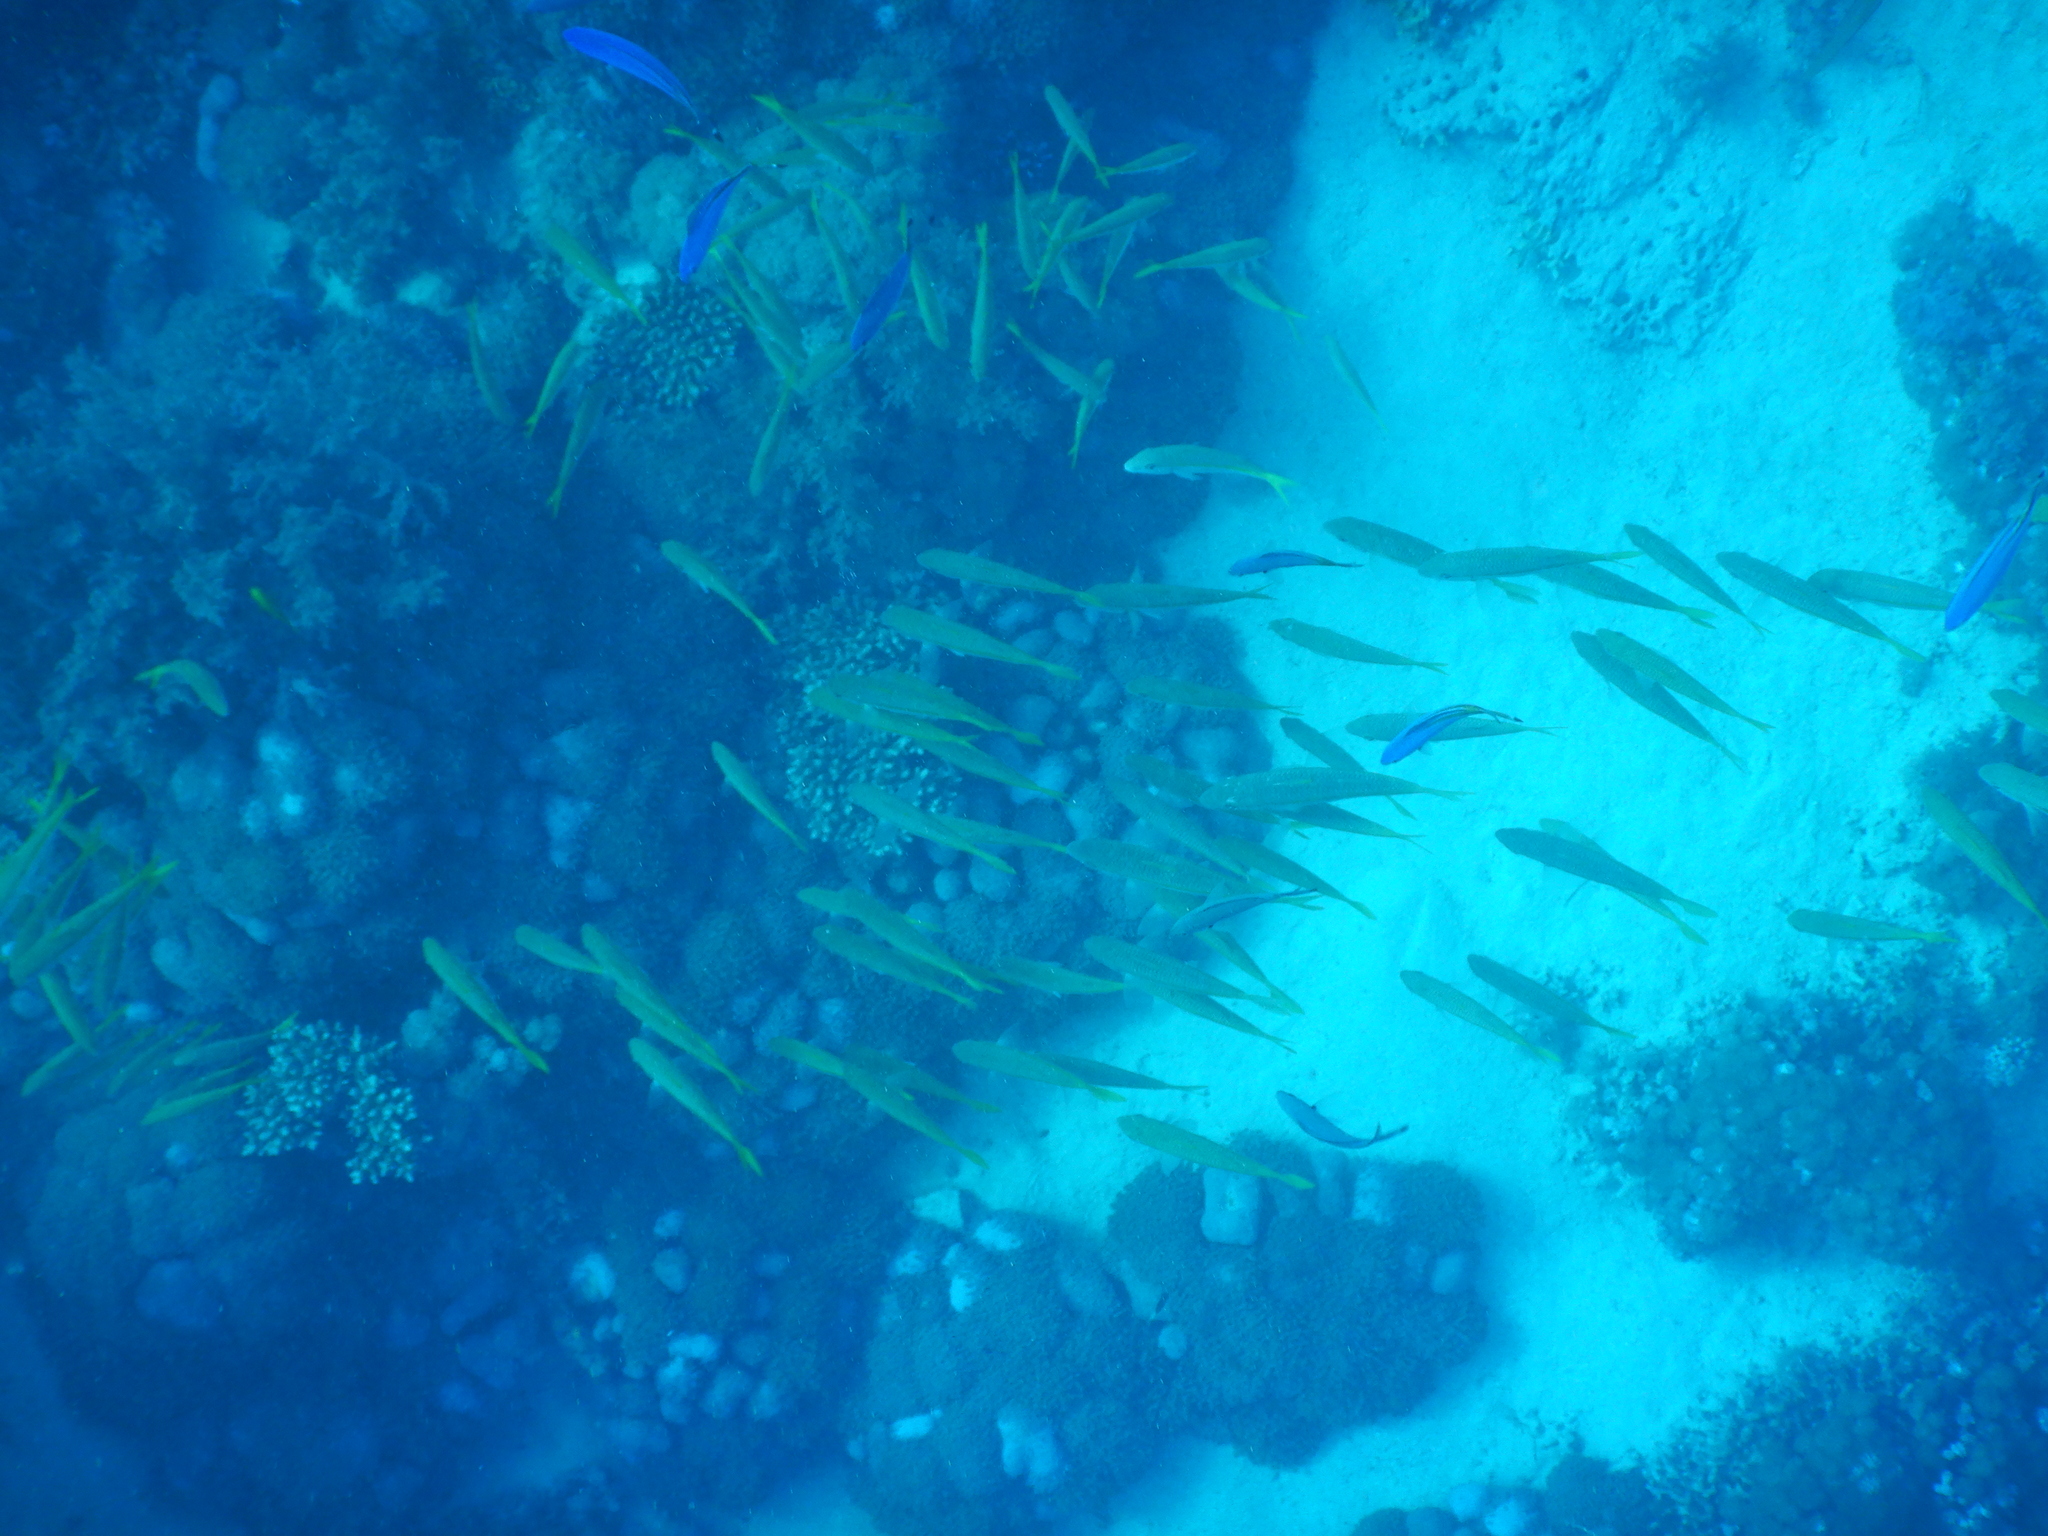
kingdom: Animalia
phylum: Chordata
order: Perciformes
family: Mullidae
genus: Mulloidichthys
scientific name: Mulloidichthys vanicolensis
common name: Yellowfin goatfish
